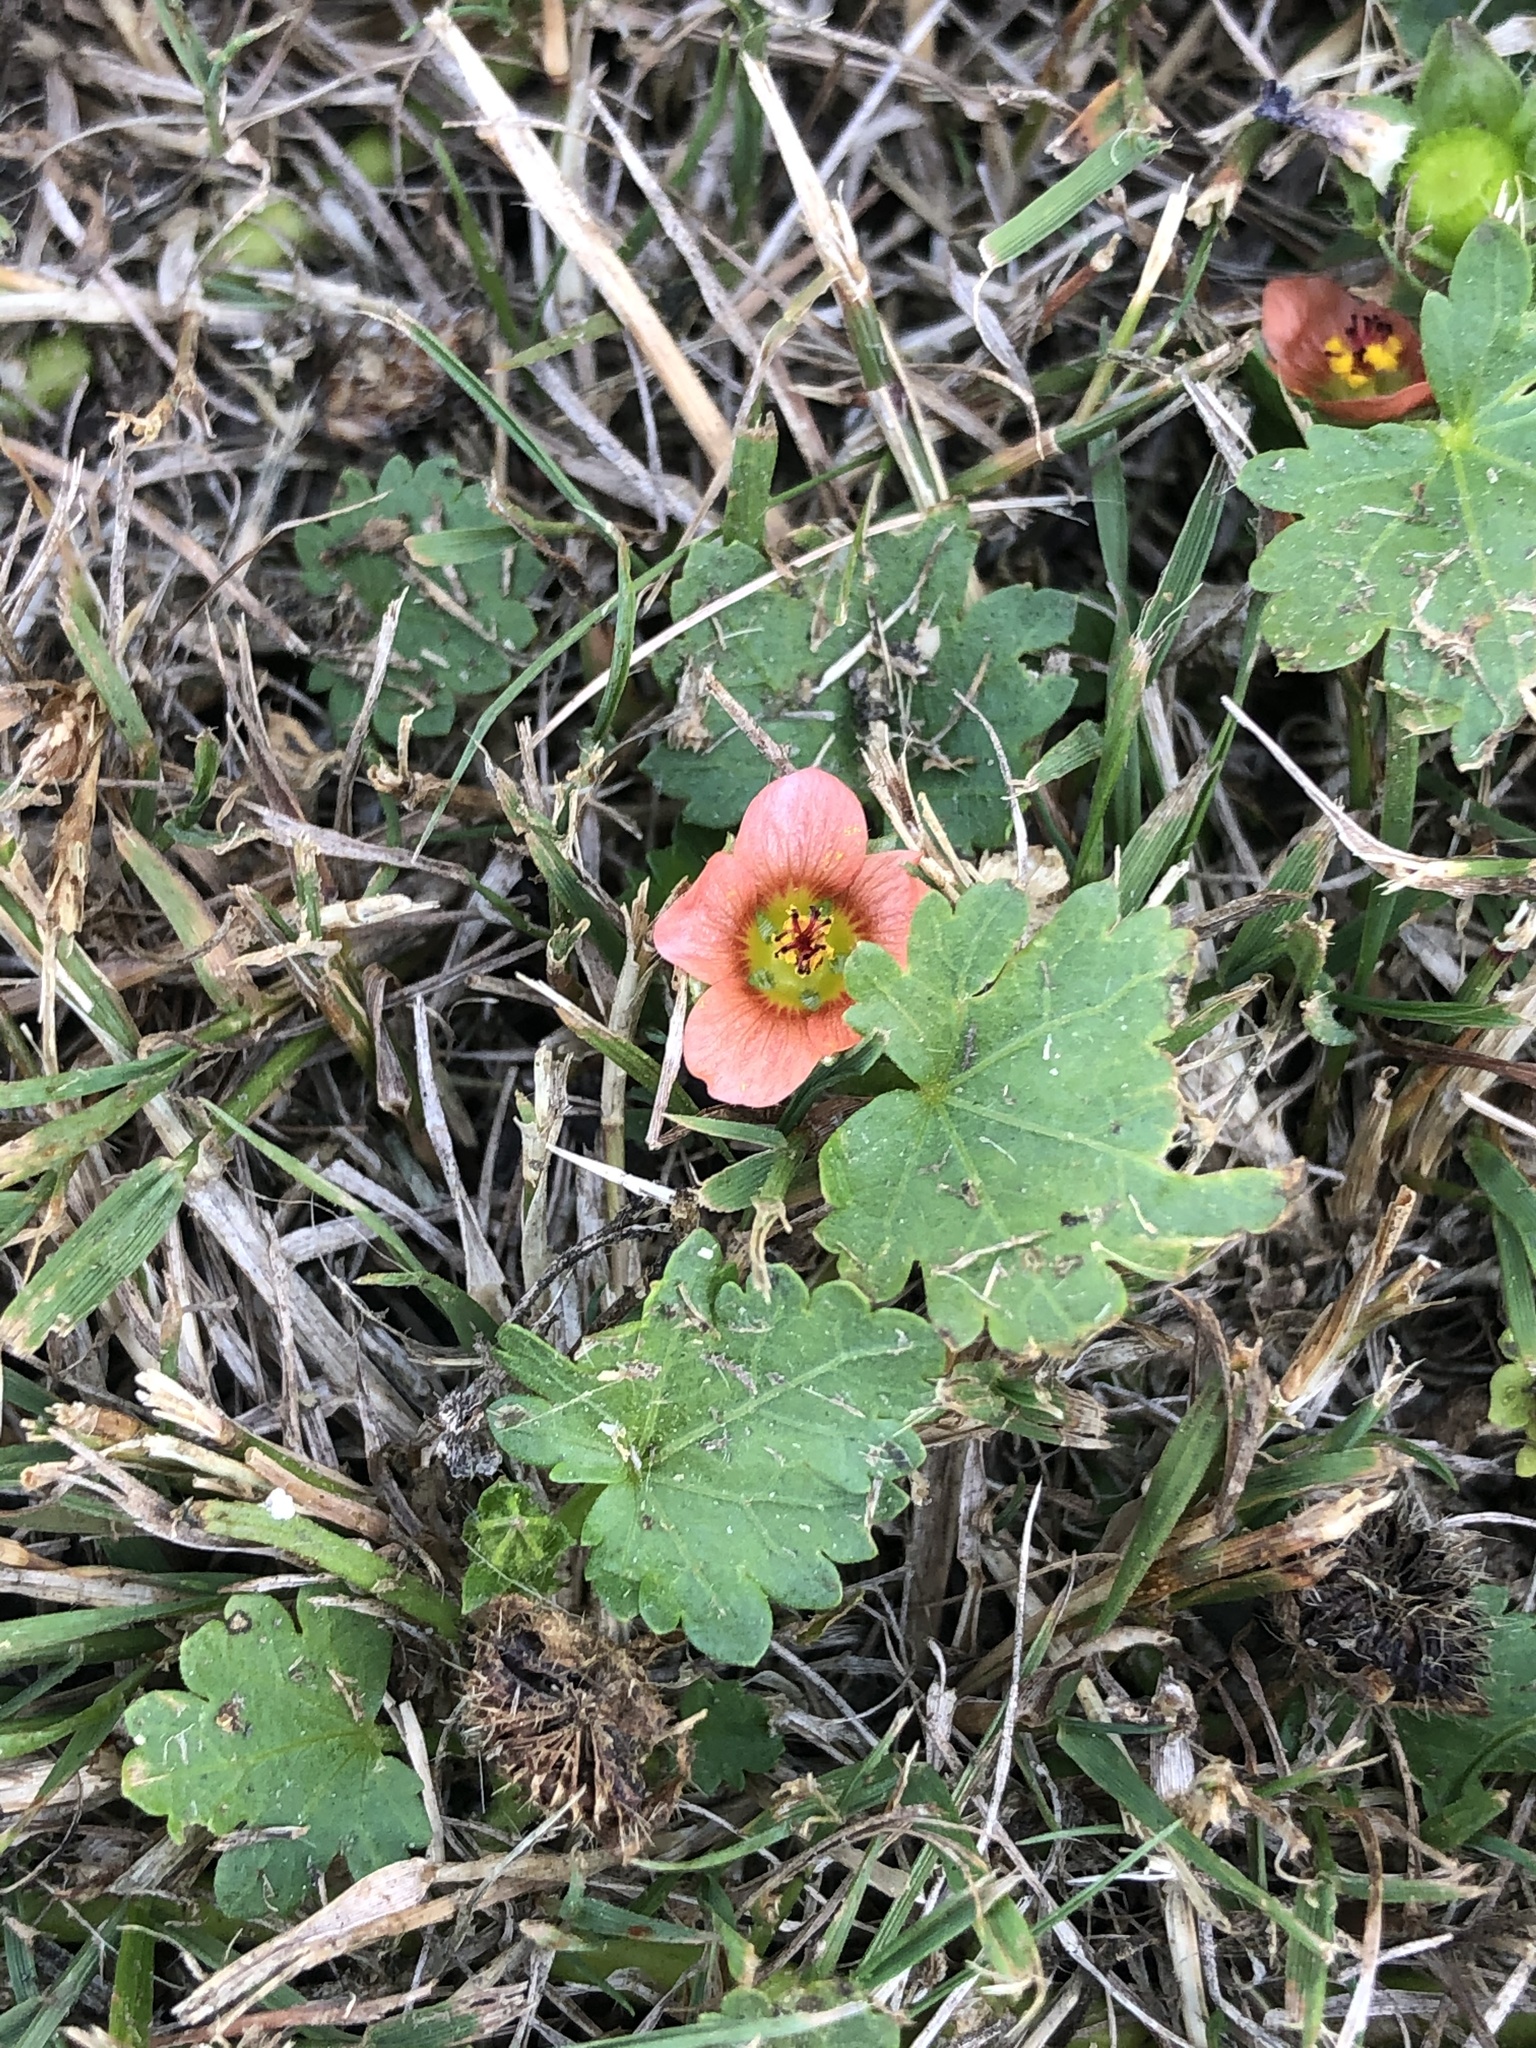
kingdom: Plantae
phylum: Tracheophyta
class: Magnoliopsida
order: Malvales
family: Malvaceae
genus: Modiola
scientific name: Modiola caroliniana
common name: Carolina bristlemallow
